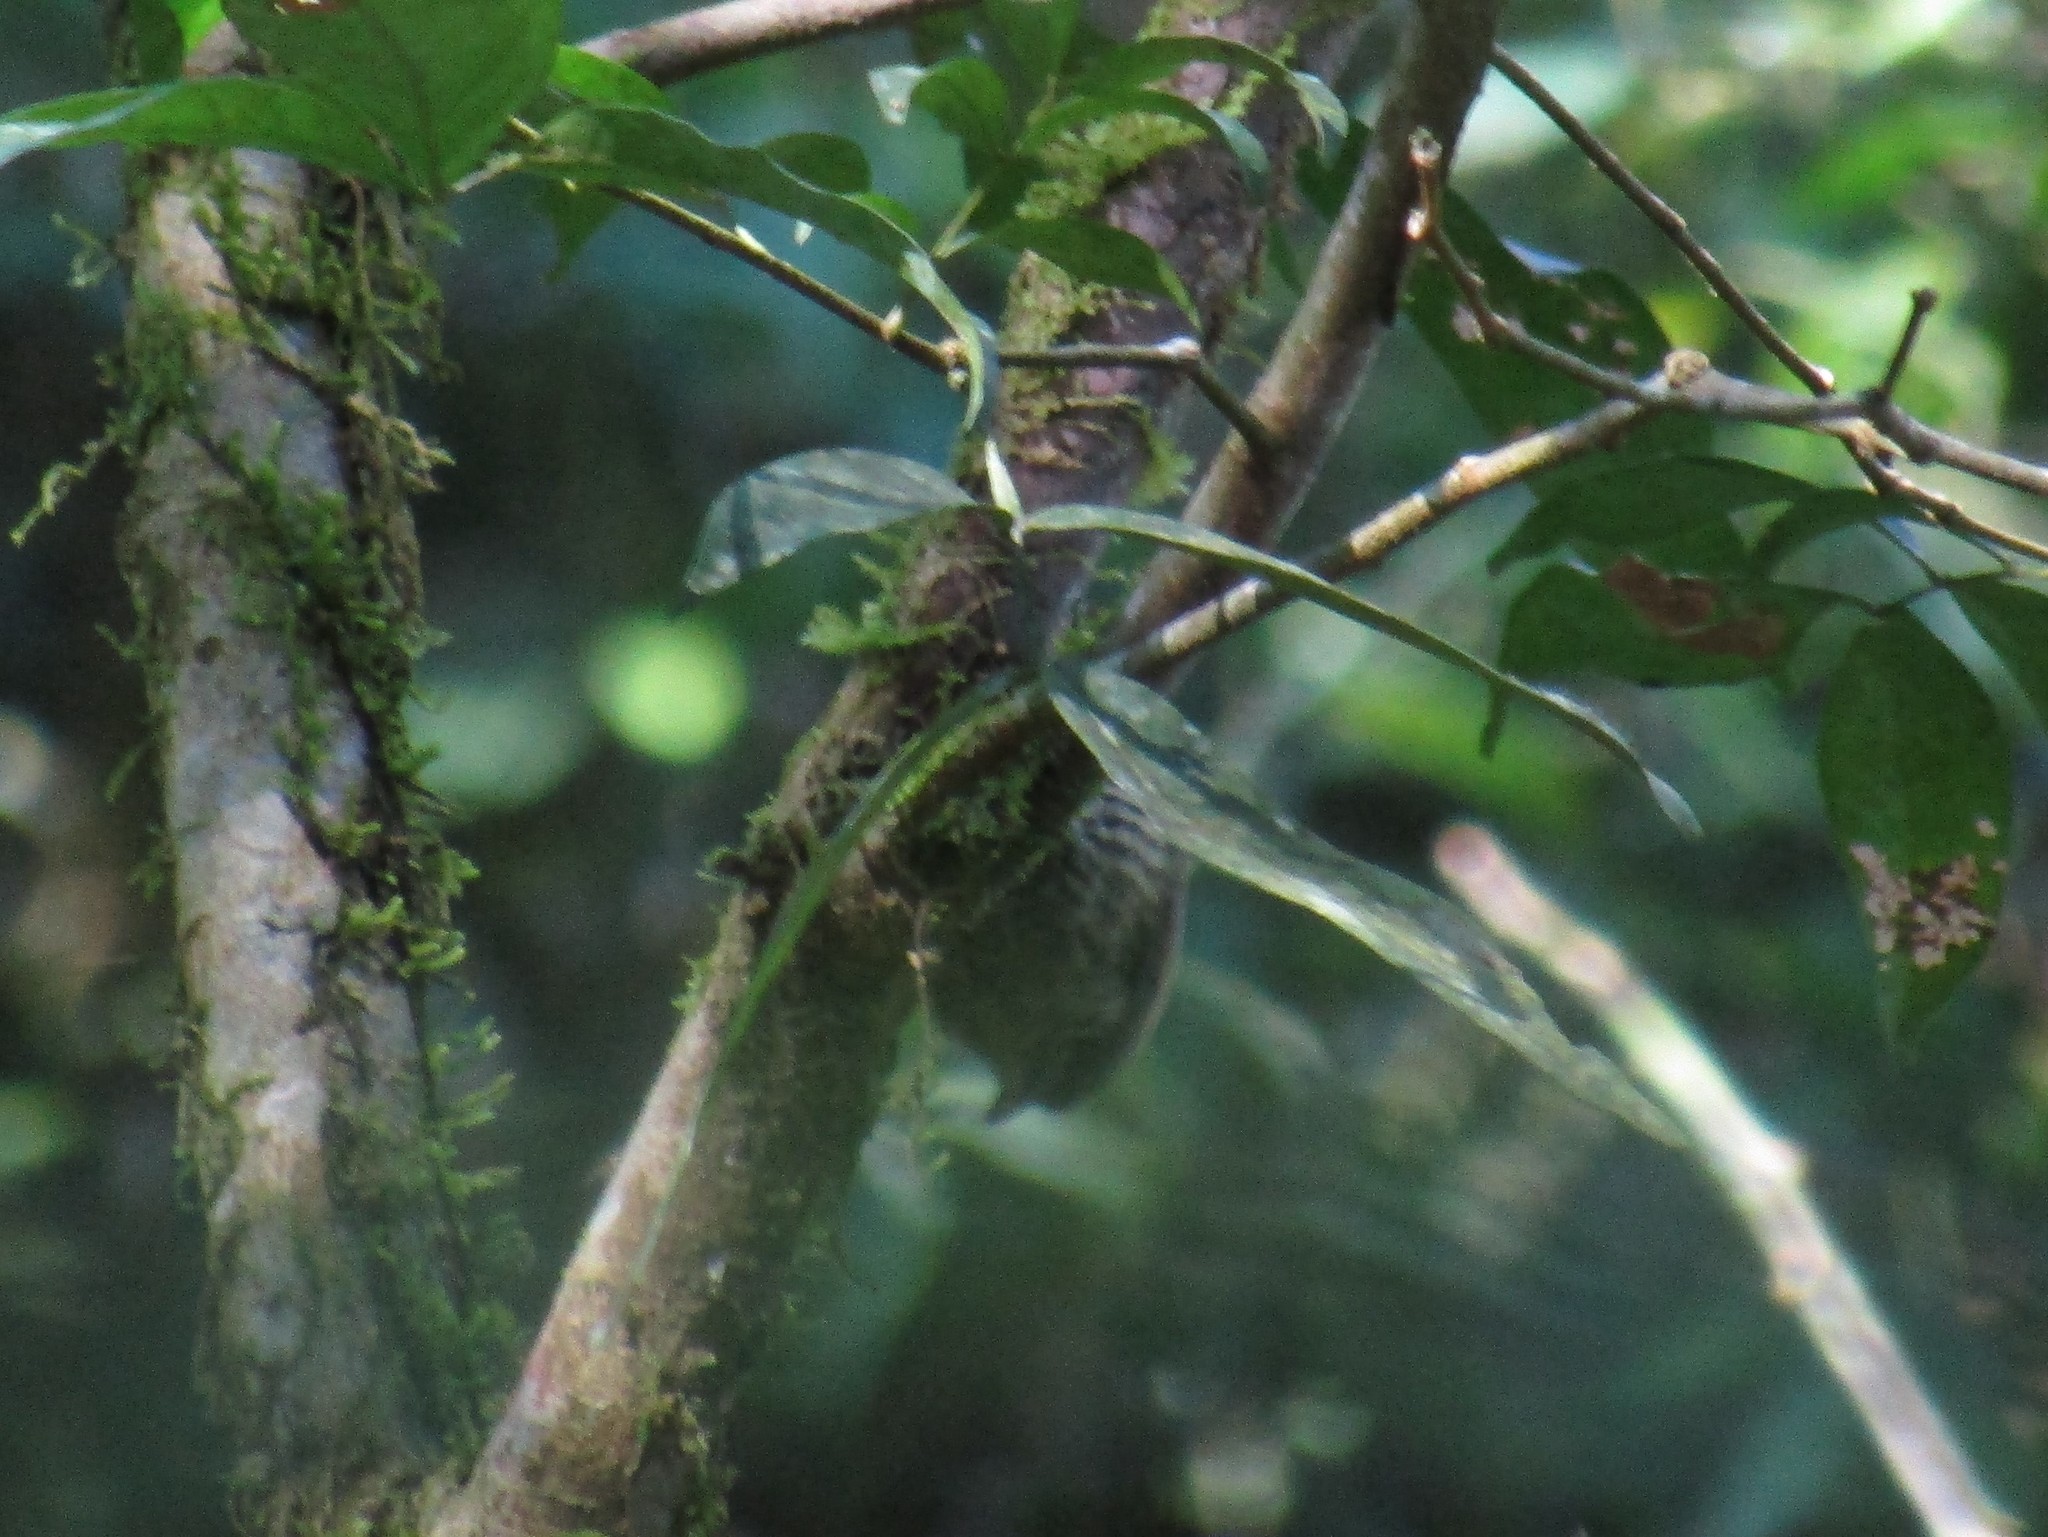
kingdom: Animalia
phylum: Chordata
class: Aves
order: Piciformes
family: Picidae
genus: Veniliornis
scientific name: Veniliornis spilogaster
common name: White-spotted woodpecker
